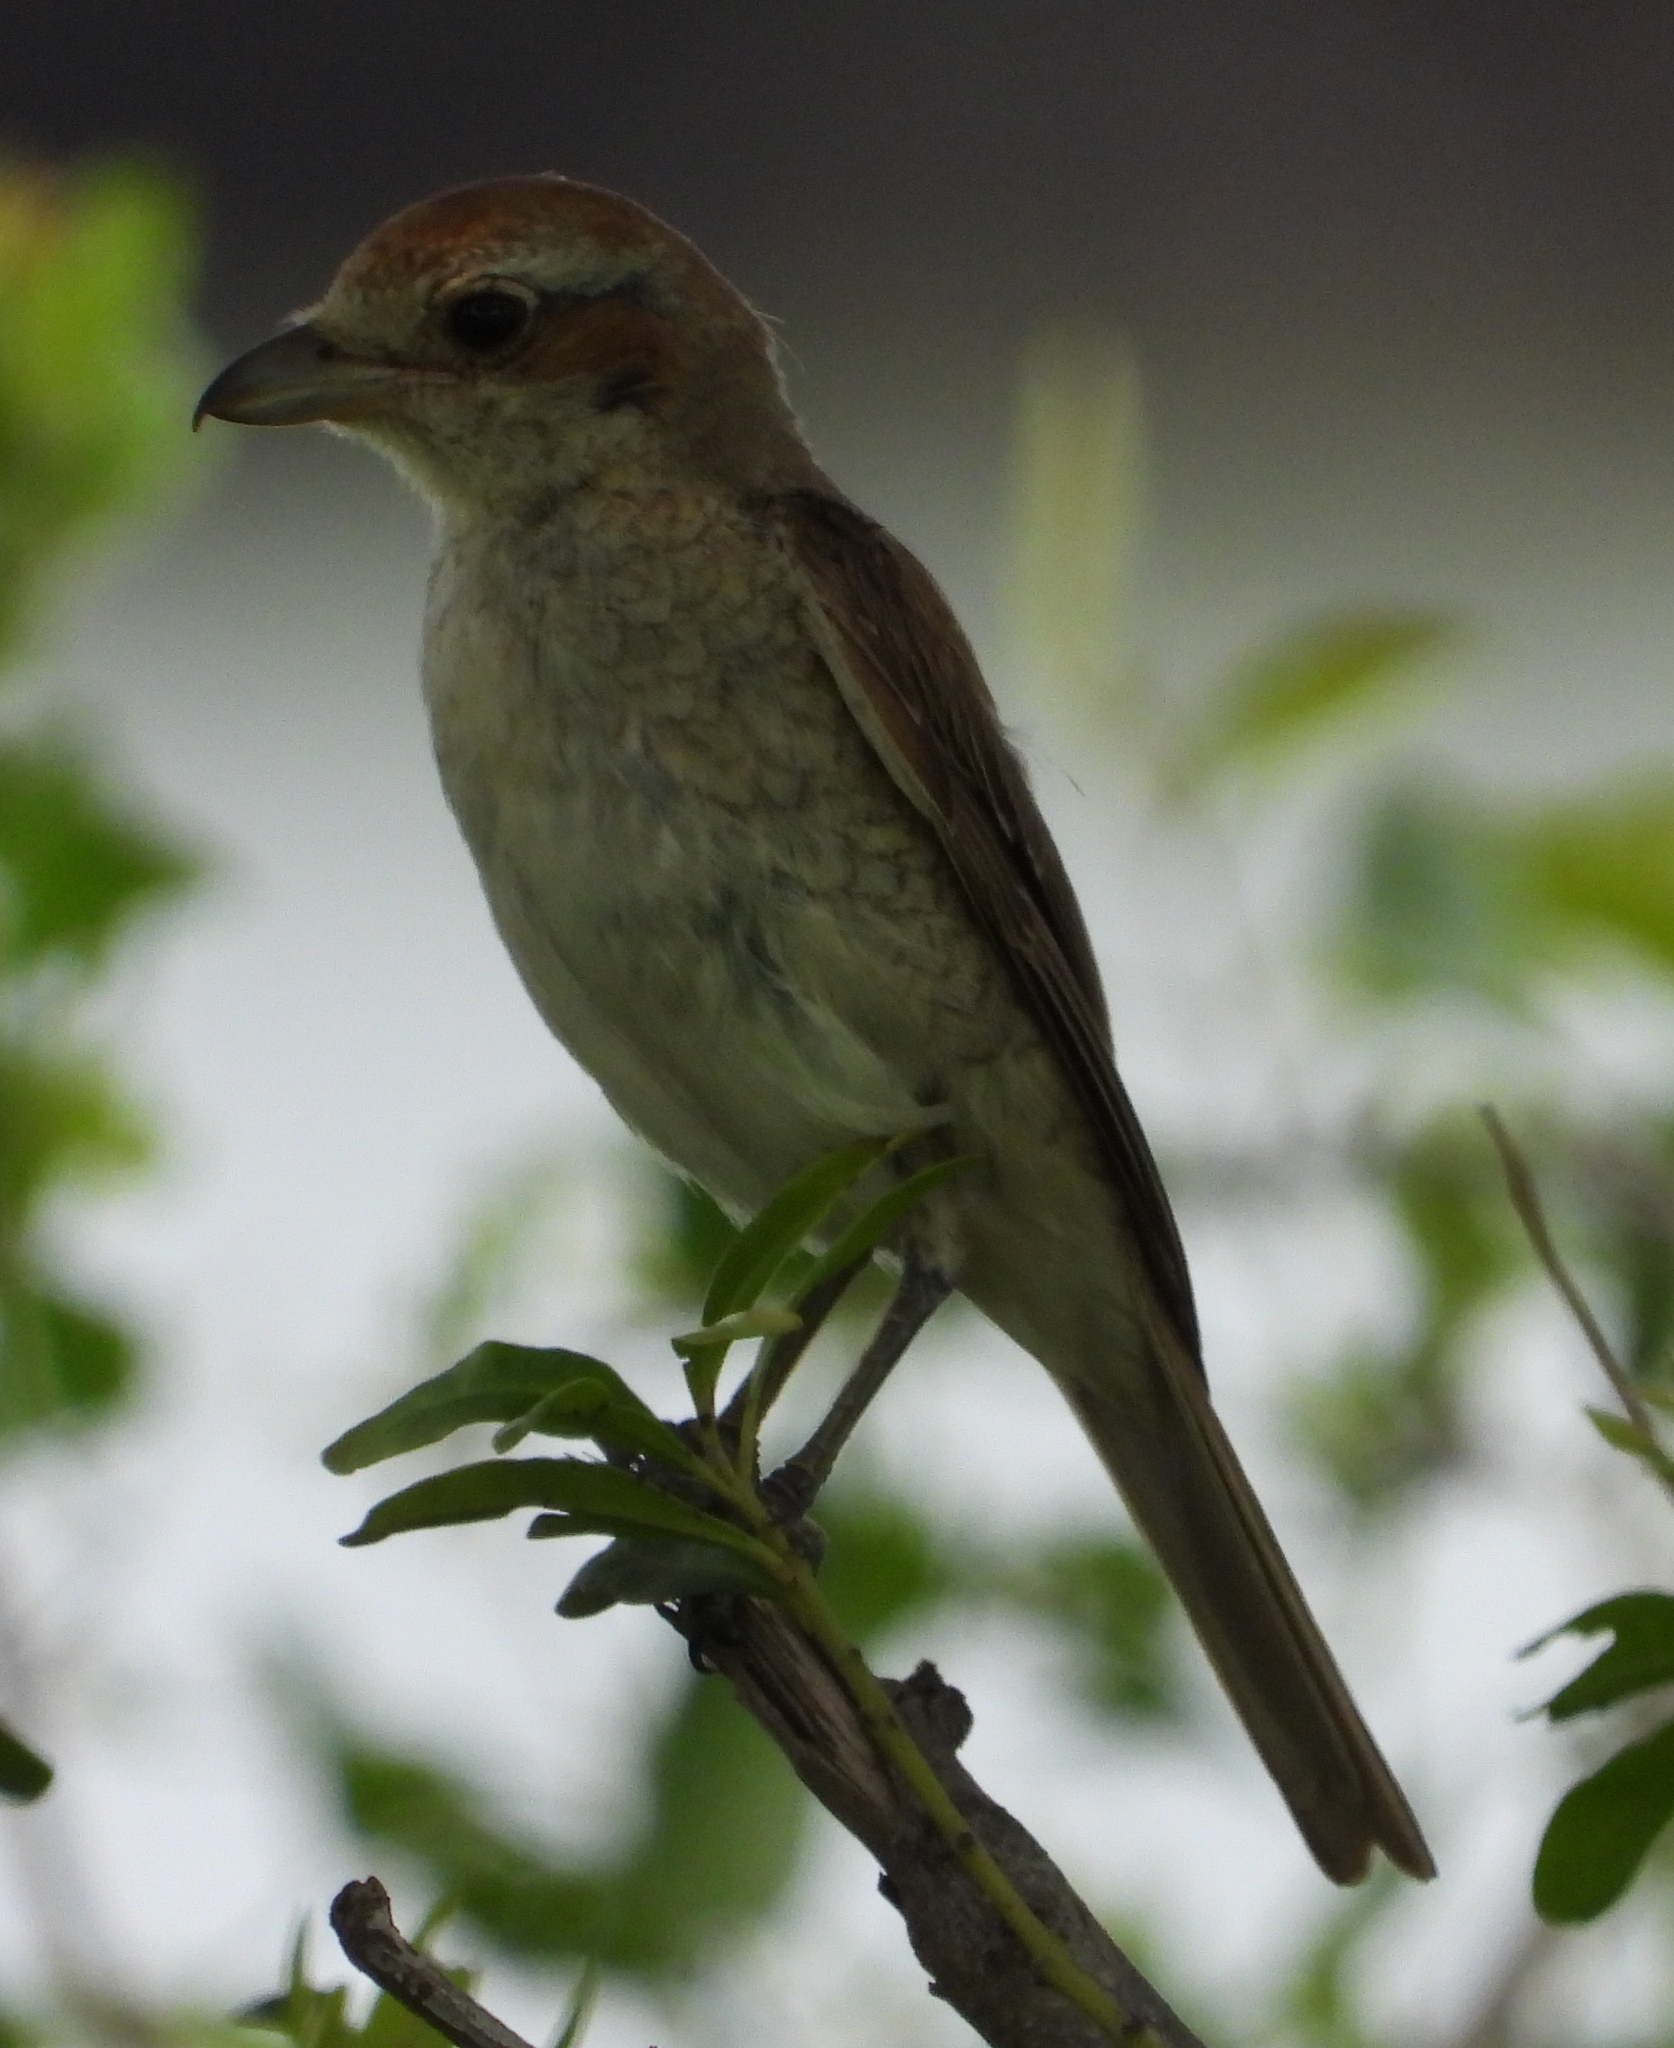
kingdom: Animalia
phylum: Chordata
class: Aves
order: Passeriformes
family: Laniidae
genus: Lanius
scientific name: Lanius collurio
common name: Red-backed shrike
